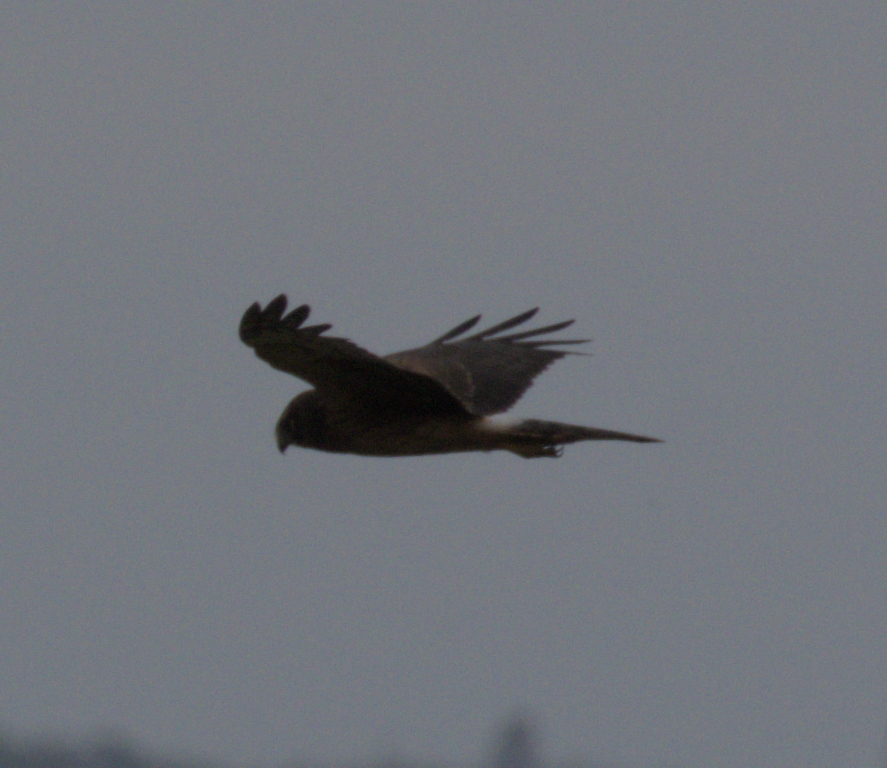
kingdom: Animalia
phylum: Chordata
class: Aves
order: Accipitriformes
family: Accipitridae
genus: Circus
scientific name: Circus cyaneus
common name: Hen harrier
